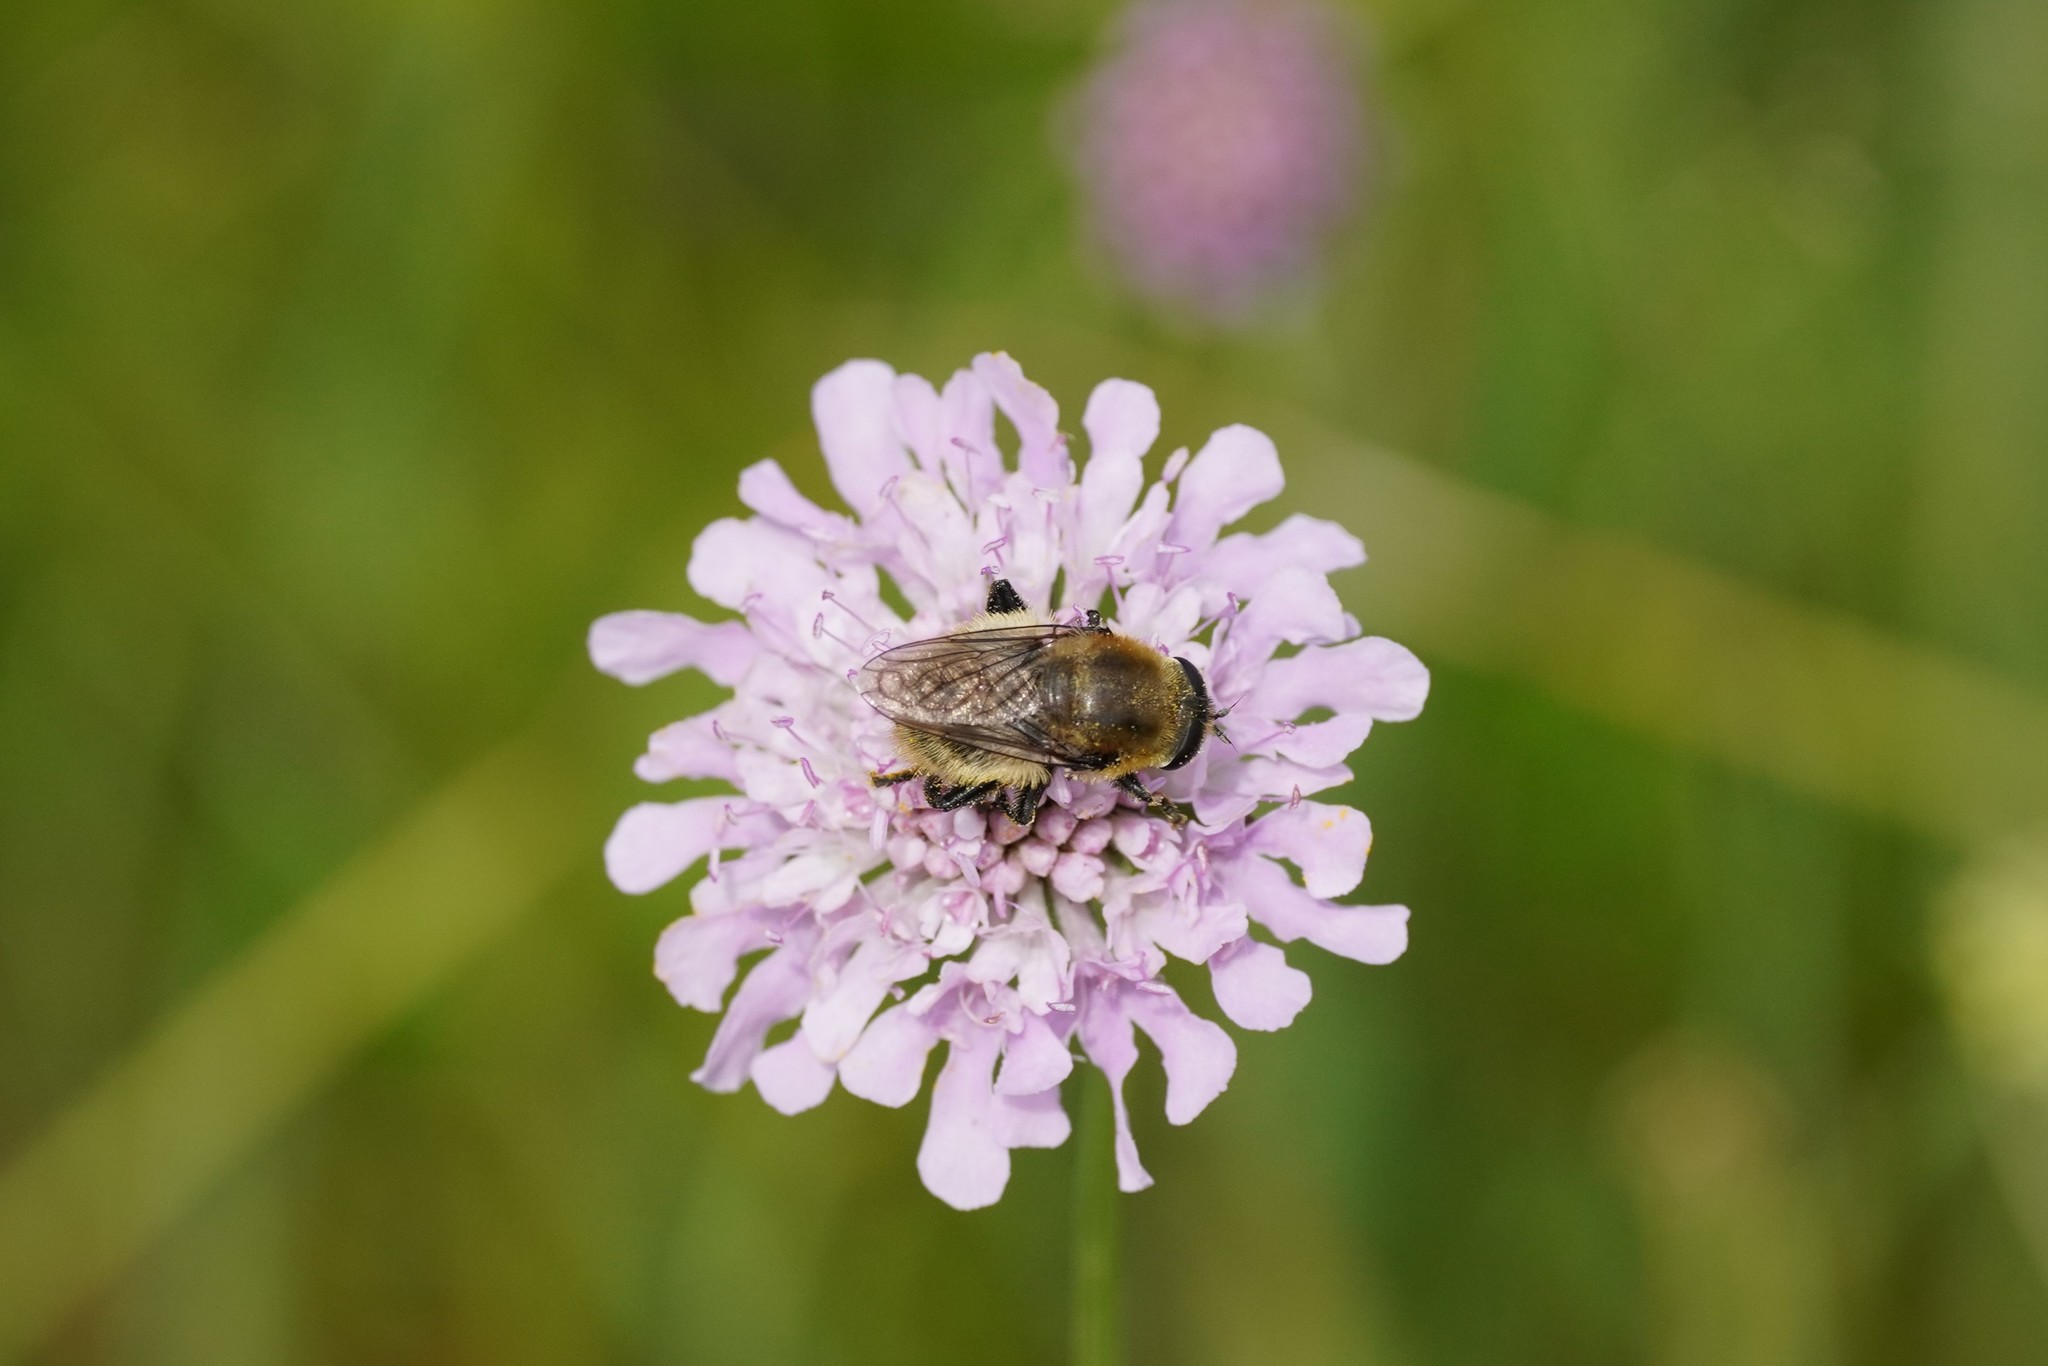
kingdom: Animalia
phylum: Arthropoda
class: Insecta
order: Diptera
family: Syrphidae
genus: Merodon
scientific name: Merodon equestris
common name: Greater bulb-fly
